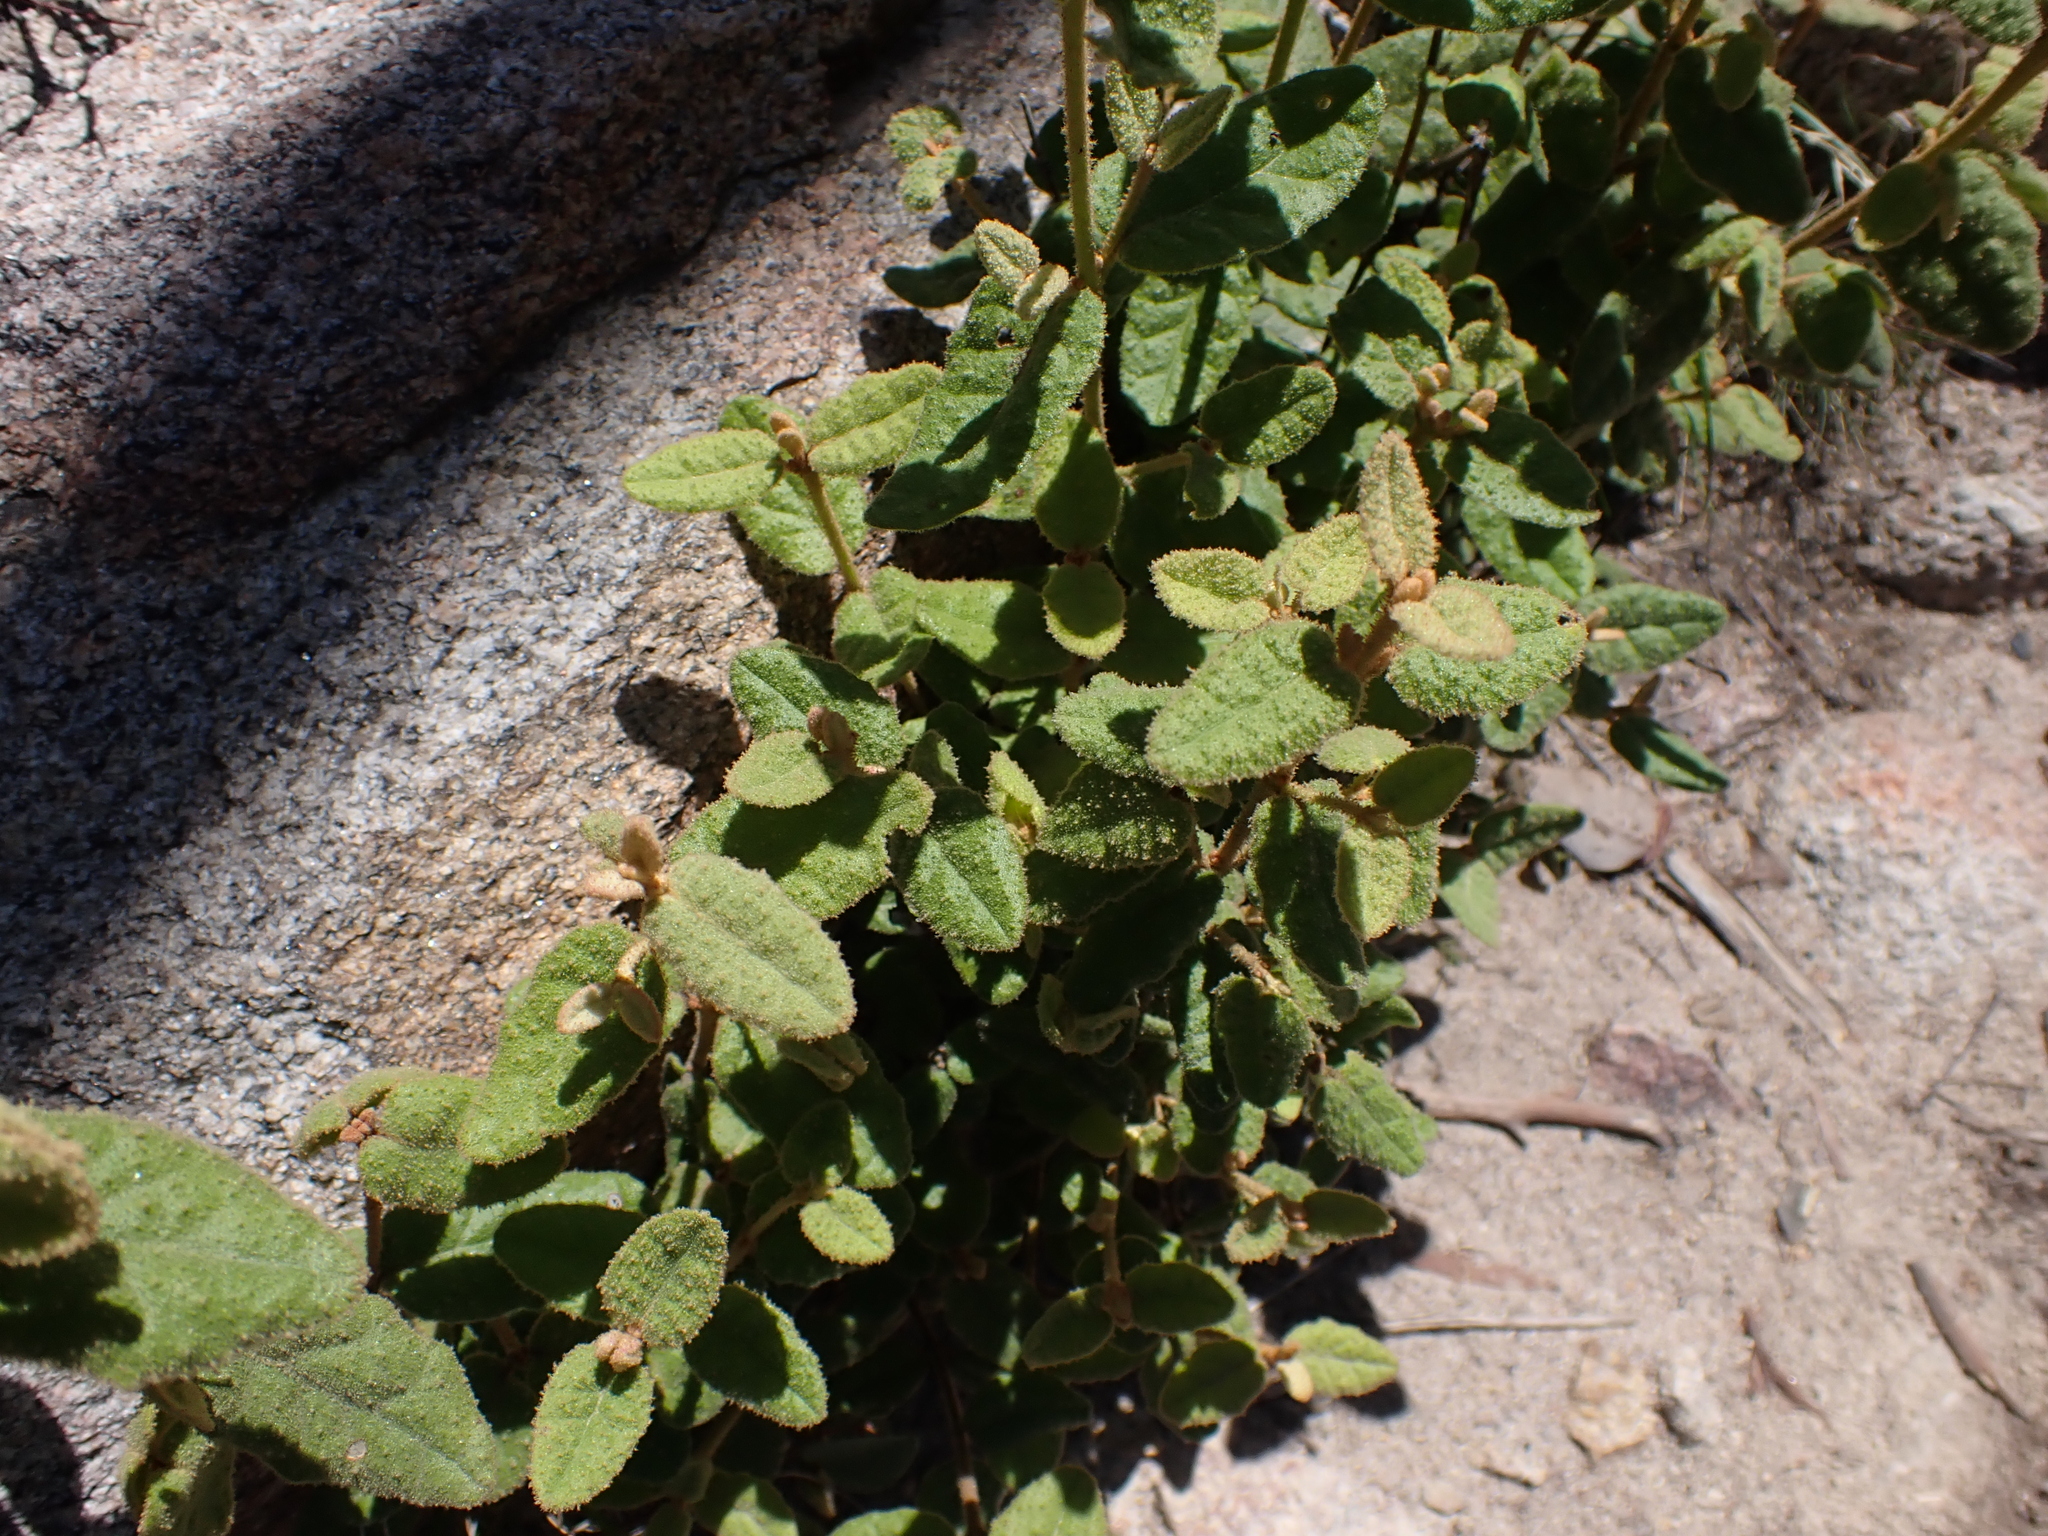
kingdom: Plantae
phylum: Tracheophyta
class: Magnoliopsida
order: Sapindales
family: Rutaceae
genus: Correa
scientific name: Correa reflexa
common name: Common correa
